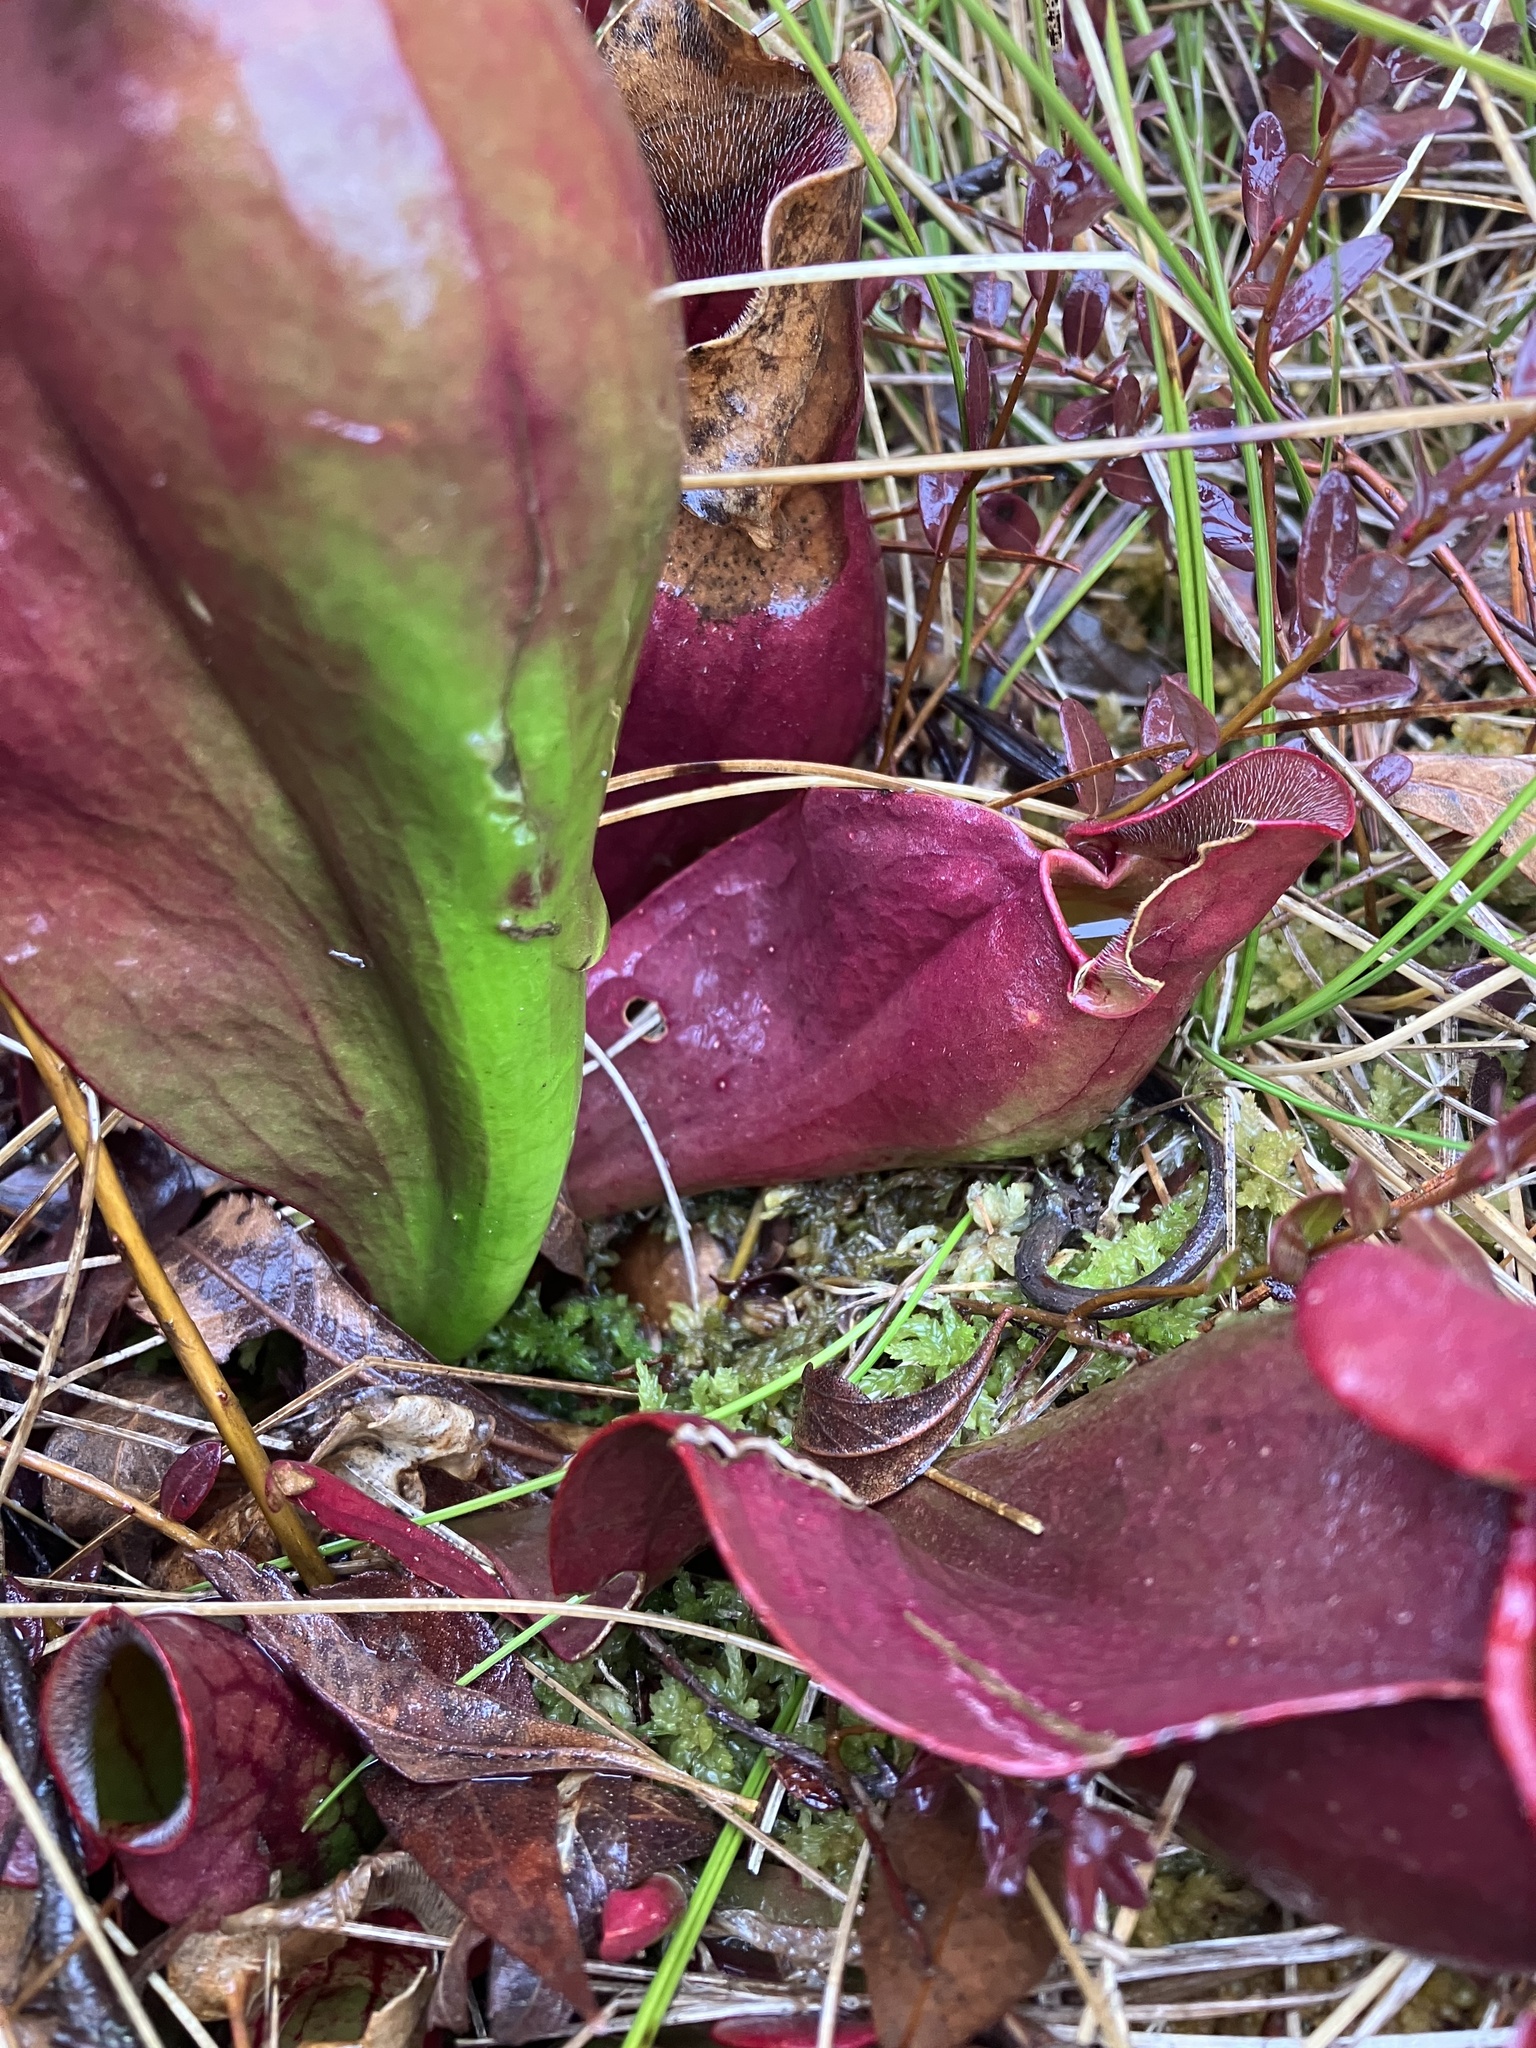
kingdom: Plantae
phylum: Tracheophyta
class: Magnoliopsida
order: Ericales
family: Sarraceniaceae
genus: Sarracenia
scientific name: Sarracenia purpurea
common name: Pitcherplant
